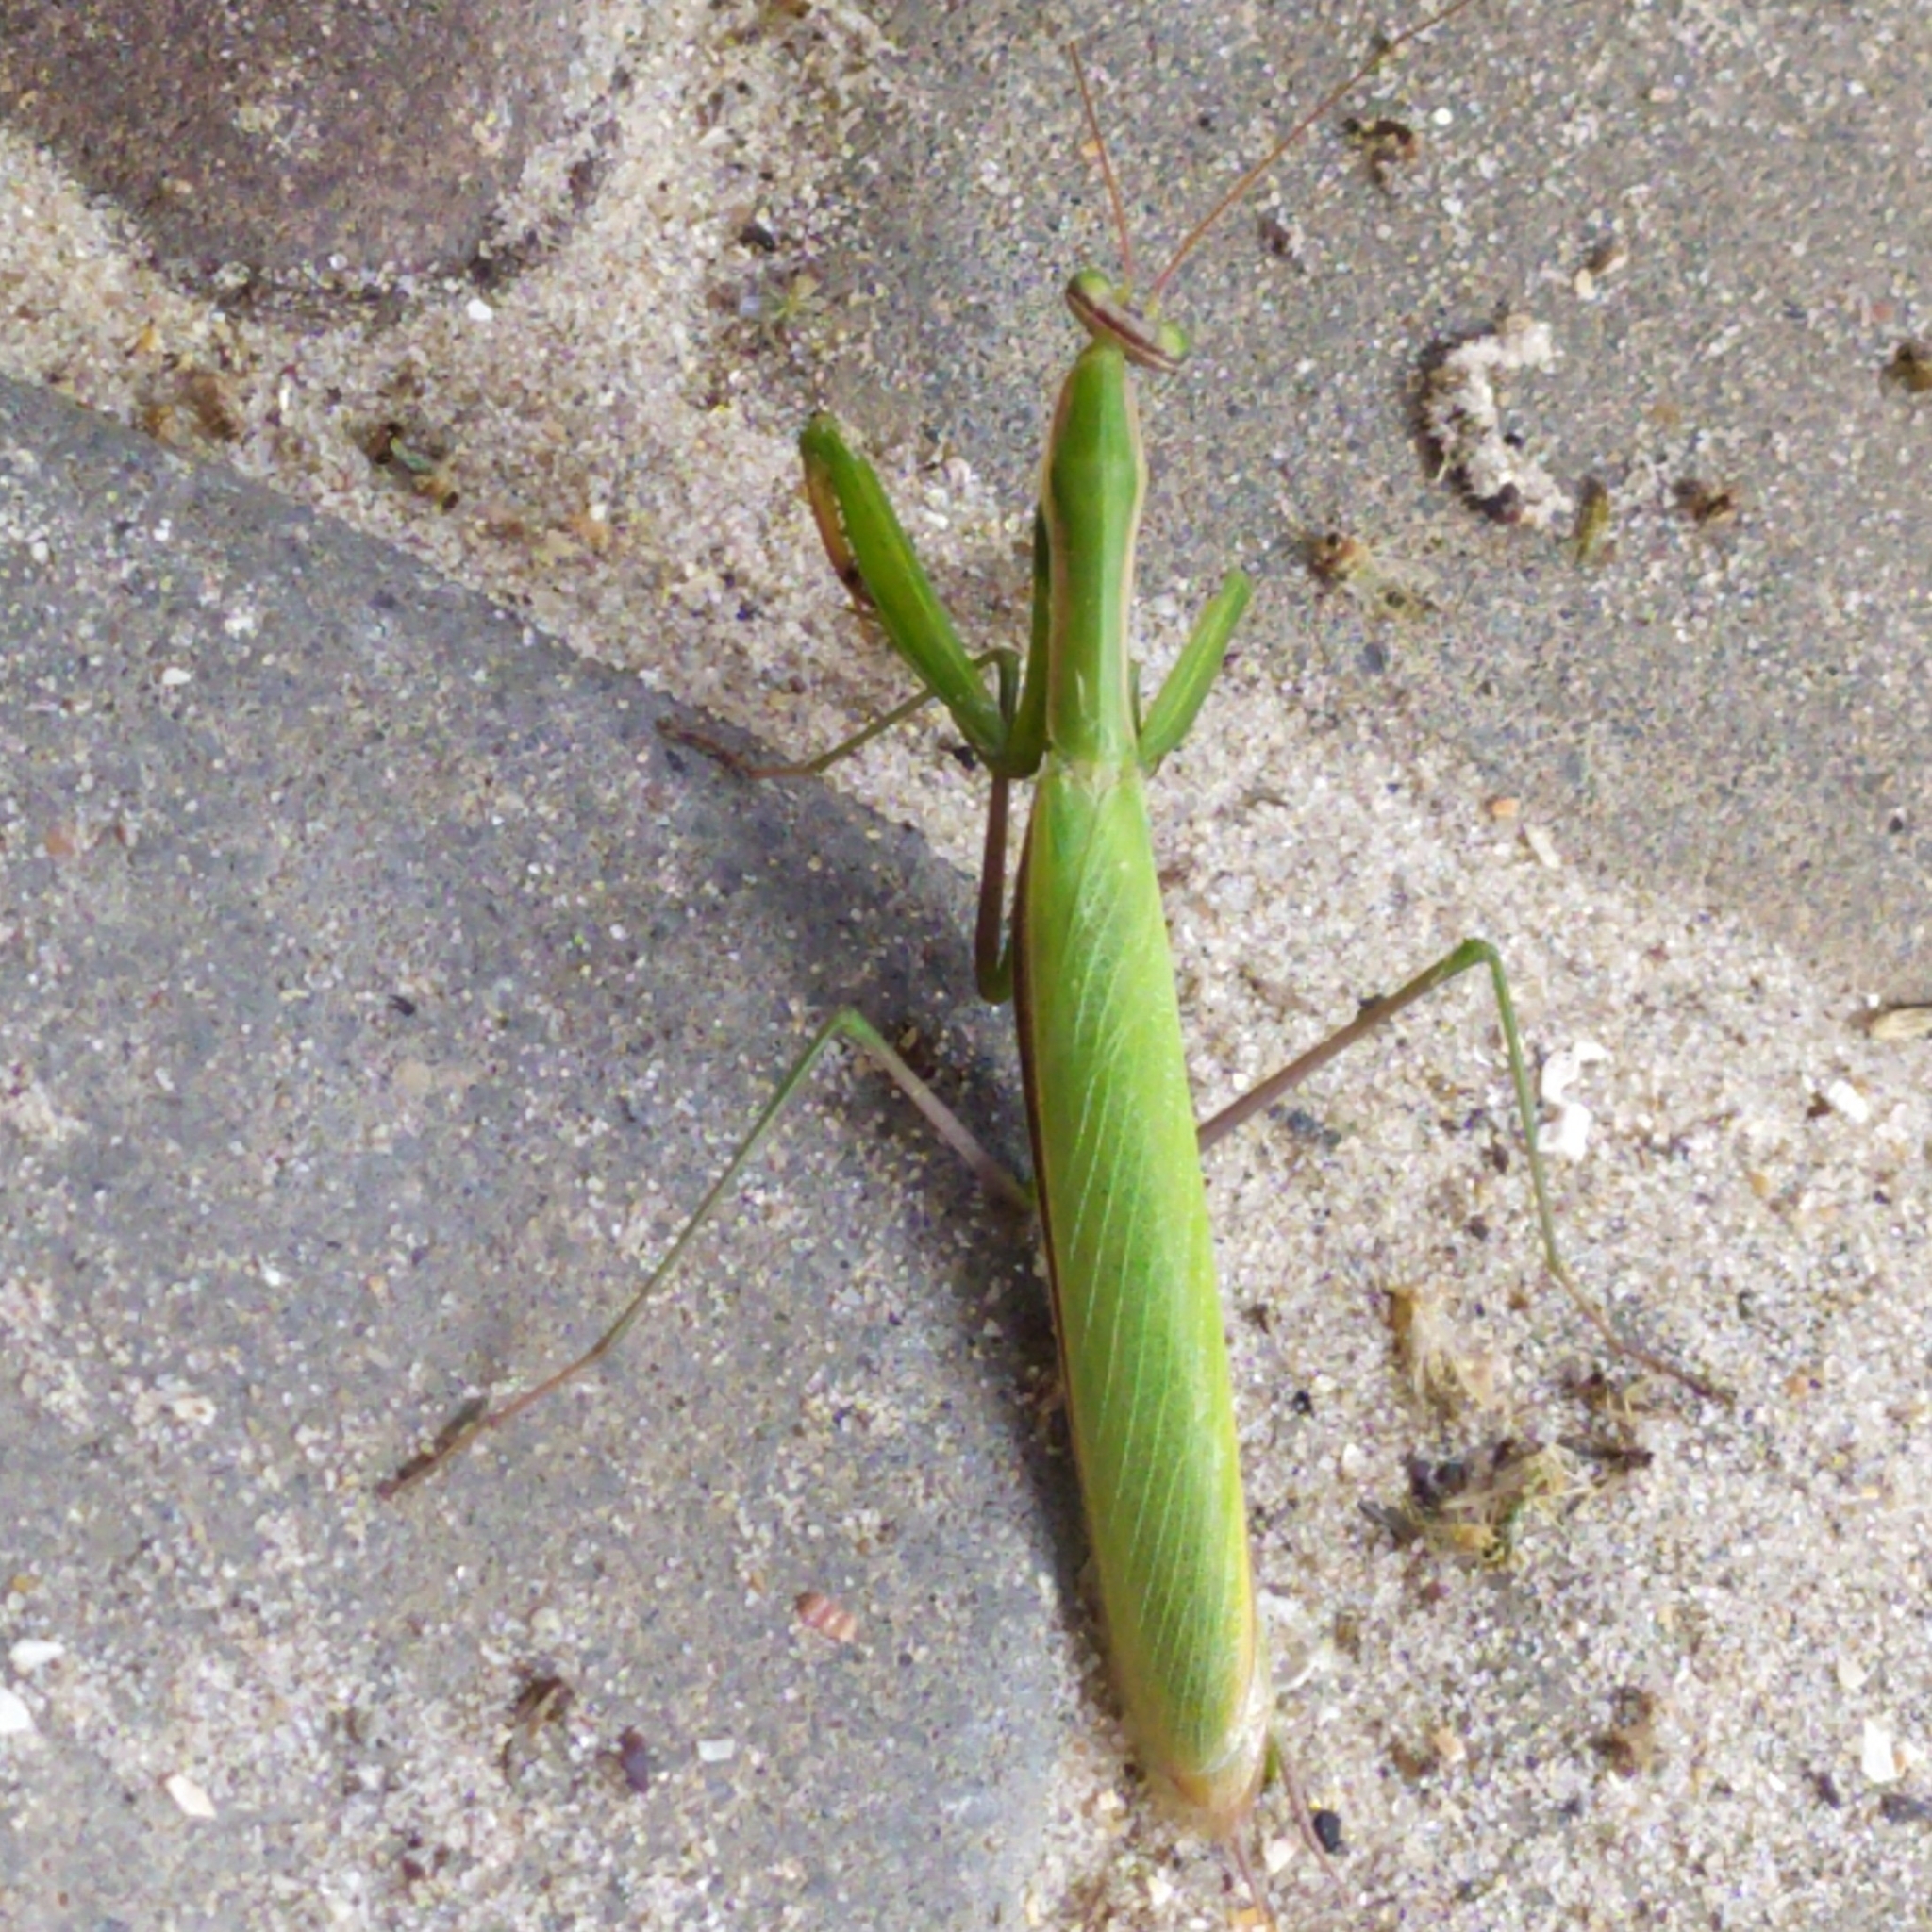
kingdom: Animalia
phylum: Arthropoda
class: Insecta
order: Mantodea
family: Mantidae
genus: Mantis
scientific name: Mantis religiosa
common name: Praying mantis
